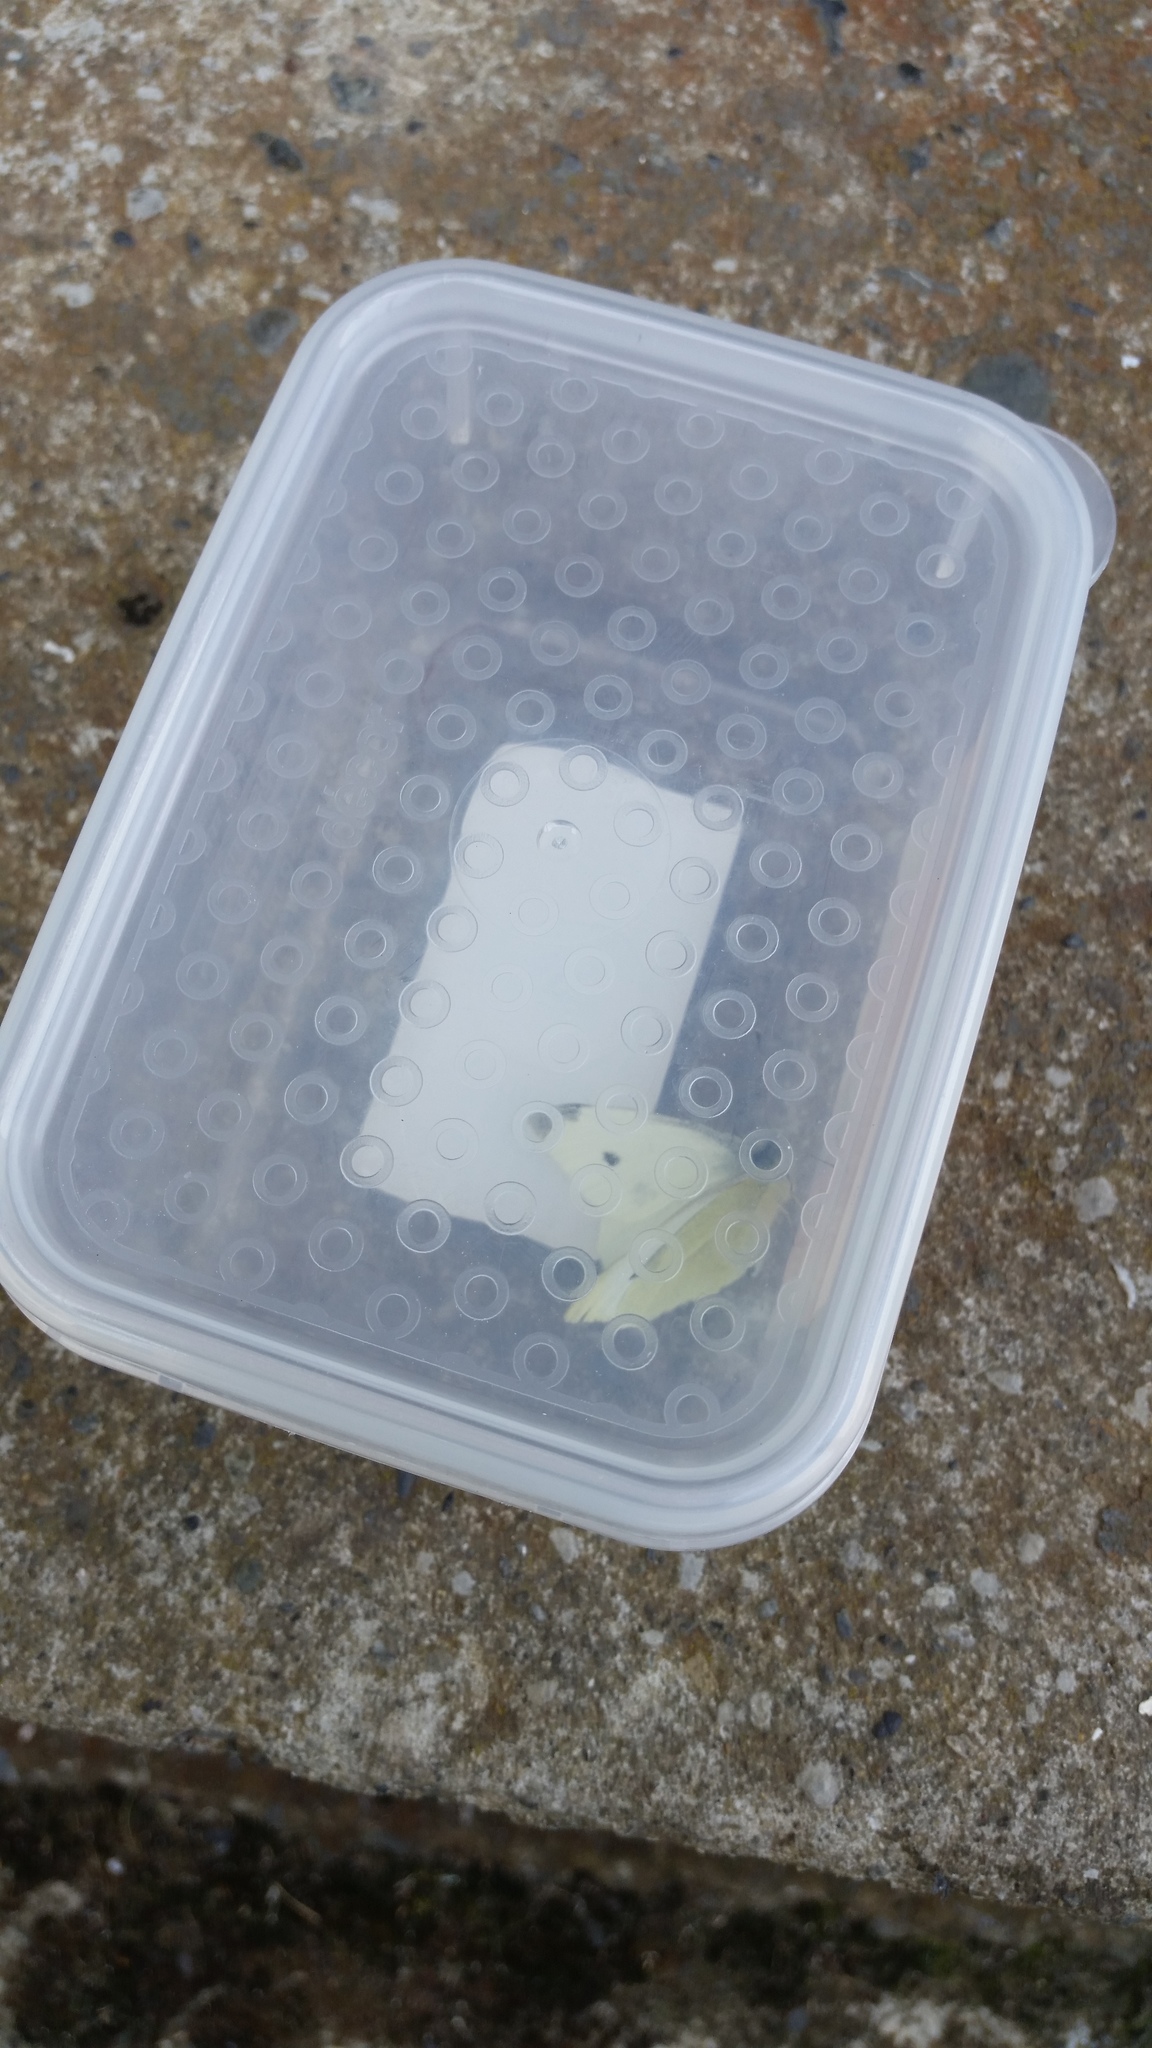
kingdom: Animalia
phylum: Arthropoda
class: Insecta
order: Lepidoptera
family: Pieridae
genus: Pieris
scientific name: Pieris rapae
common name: Small white
